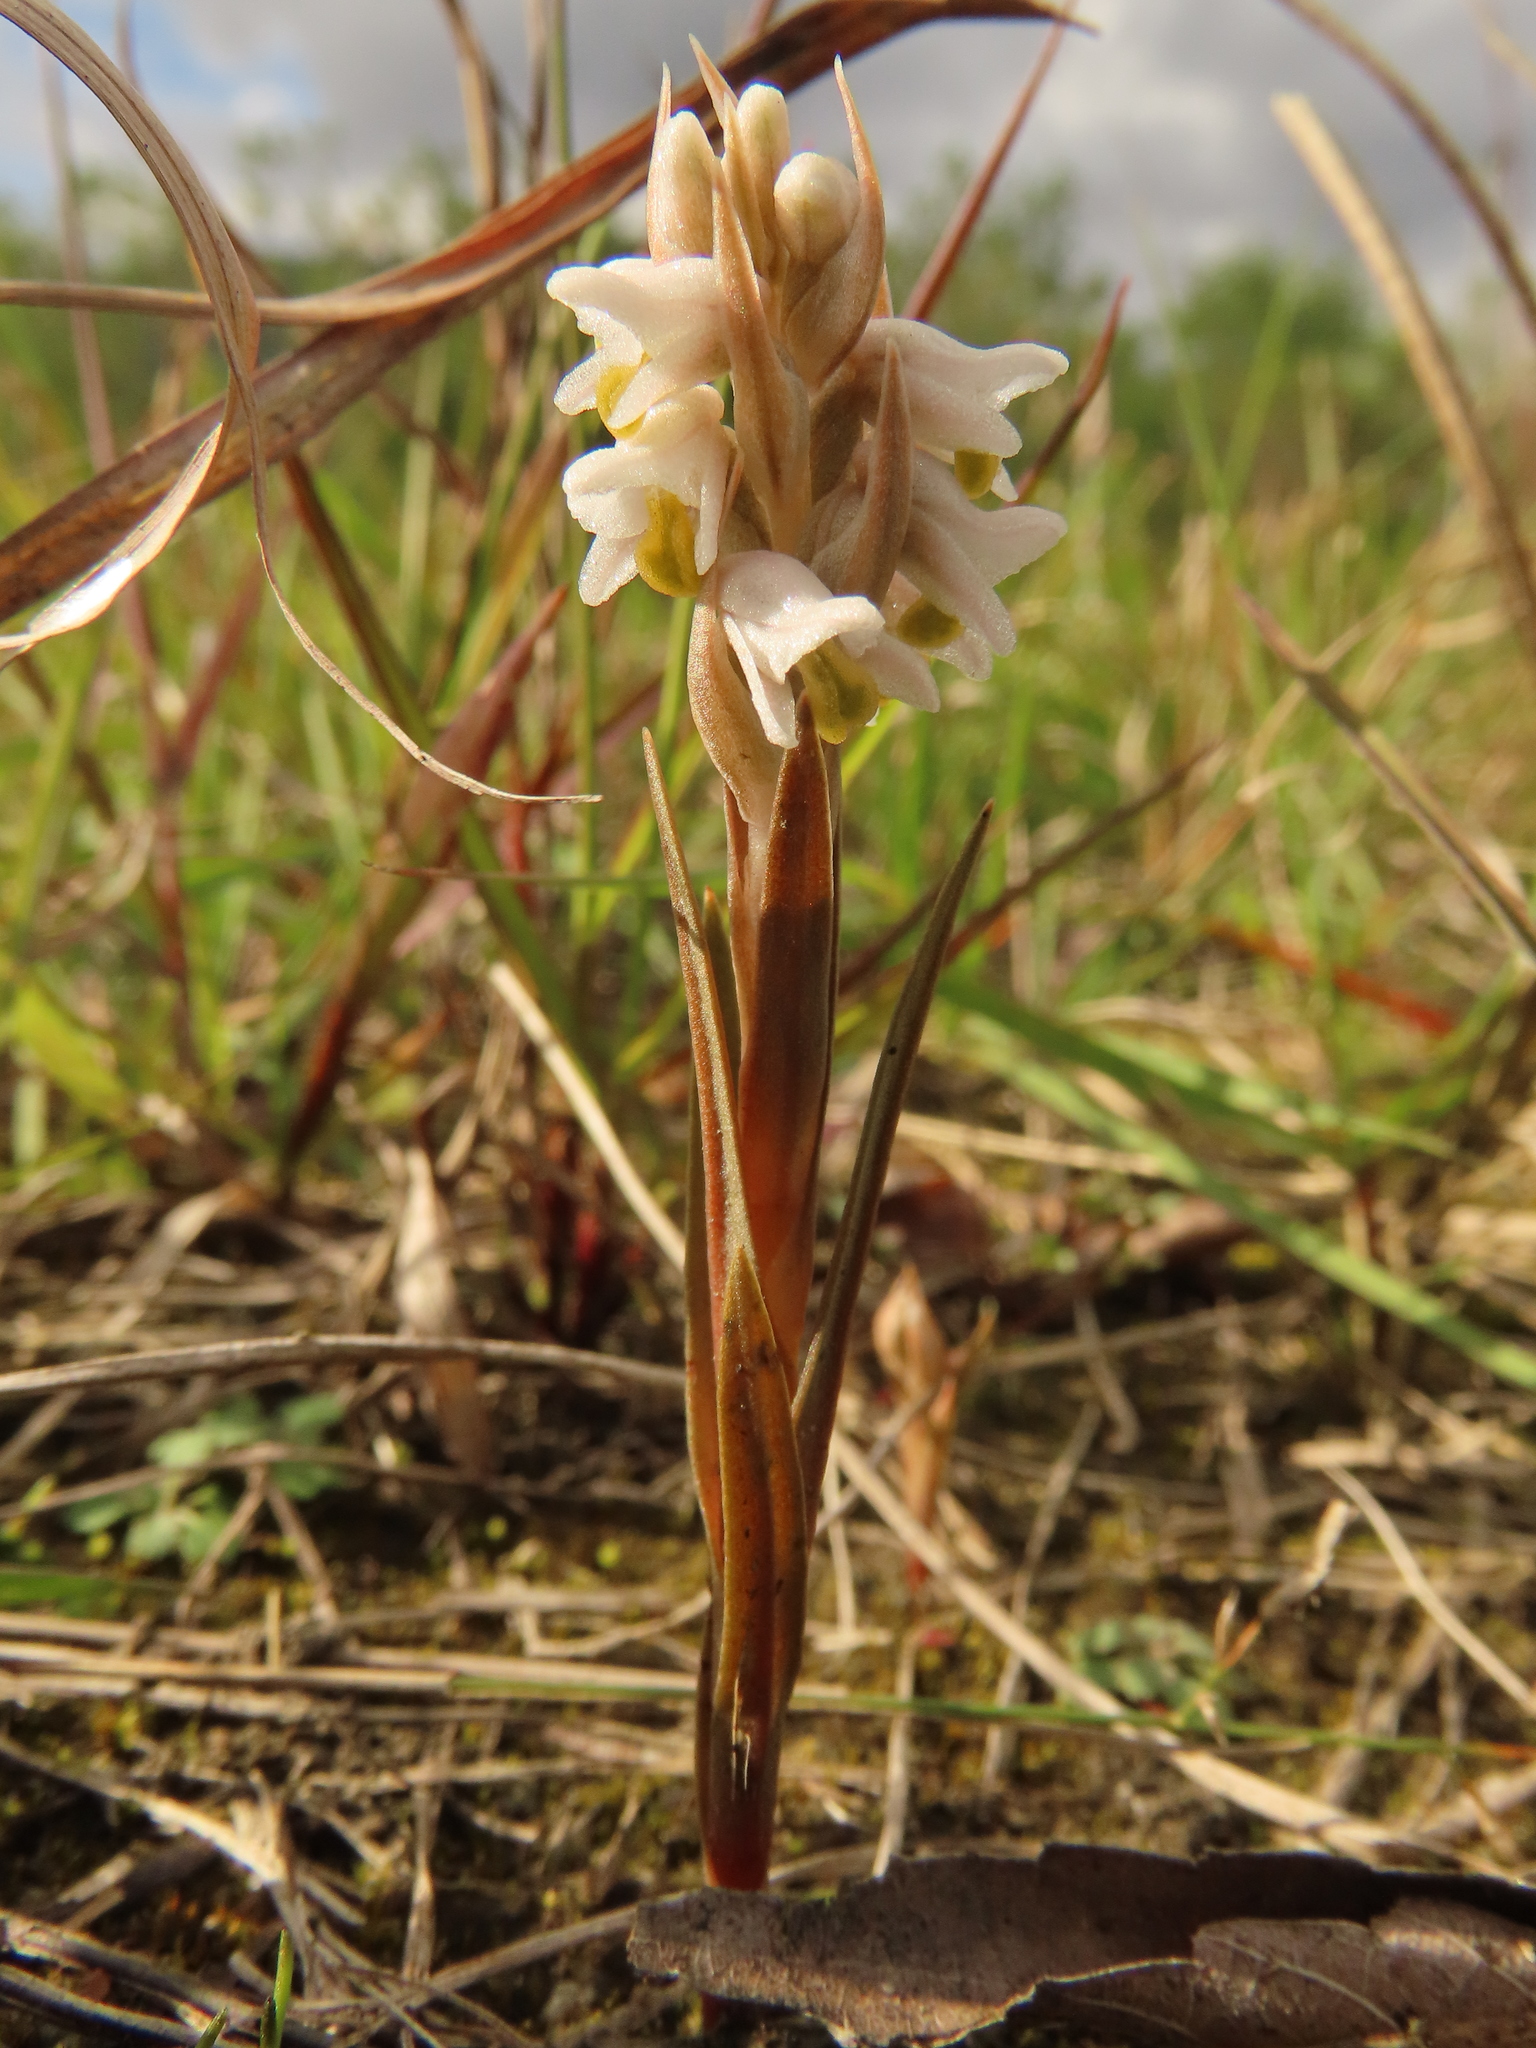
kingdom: Plantae
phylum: Tracheophyta
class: Liliopsida
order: Asparagales
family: Orchidaceae
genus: Zeuxine
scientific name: Zeuxine strateumatica
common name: Soldier's orchid
